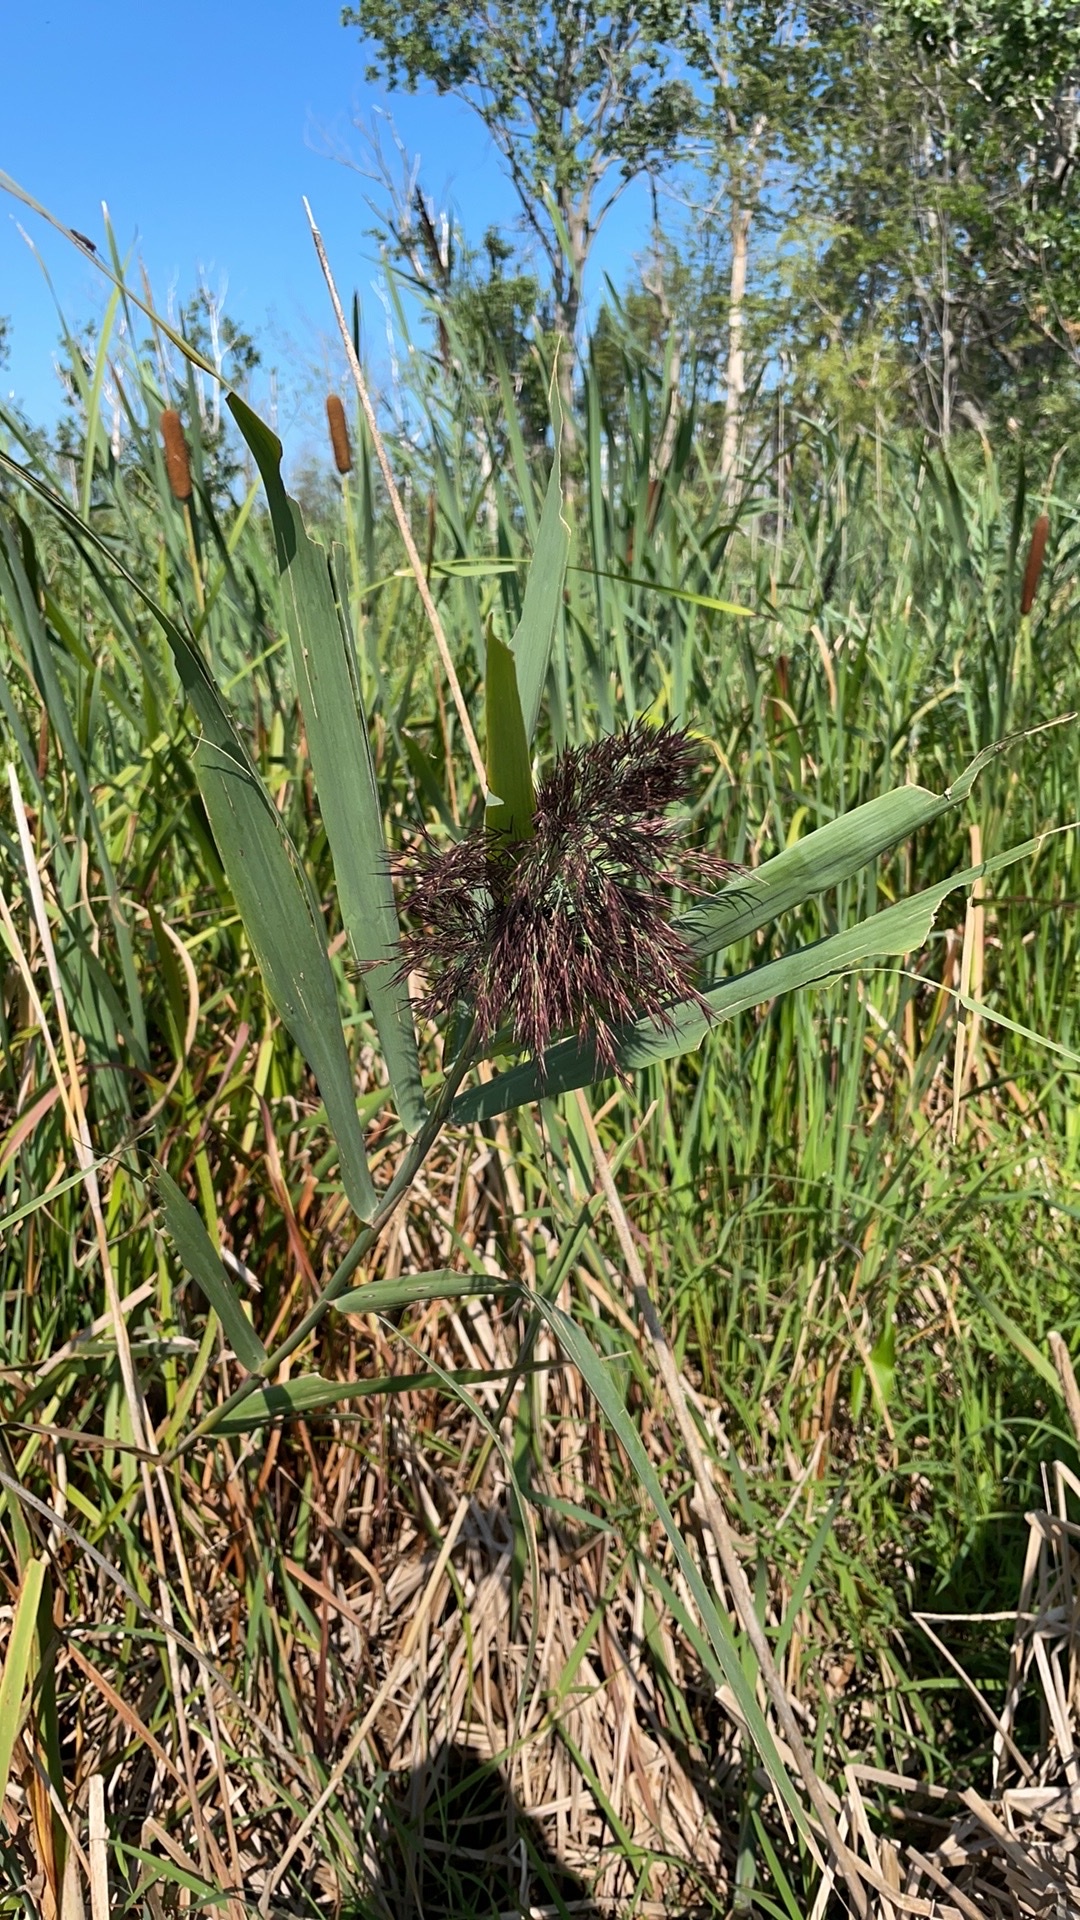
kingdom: Plantae
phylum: Tracheophyta
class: Liliopsida
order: Poales
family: Poaceae
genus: Phragmites
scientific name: Phragmites australis
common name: Common reed
